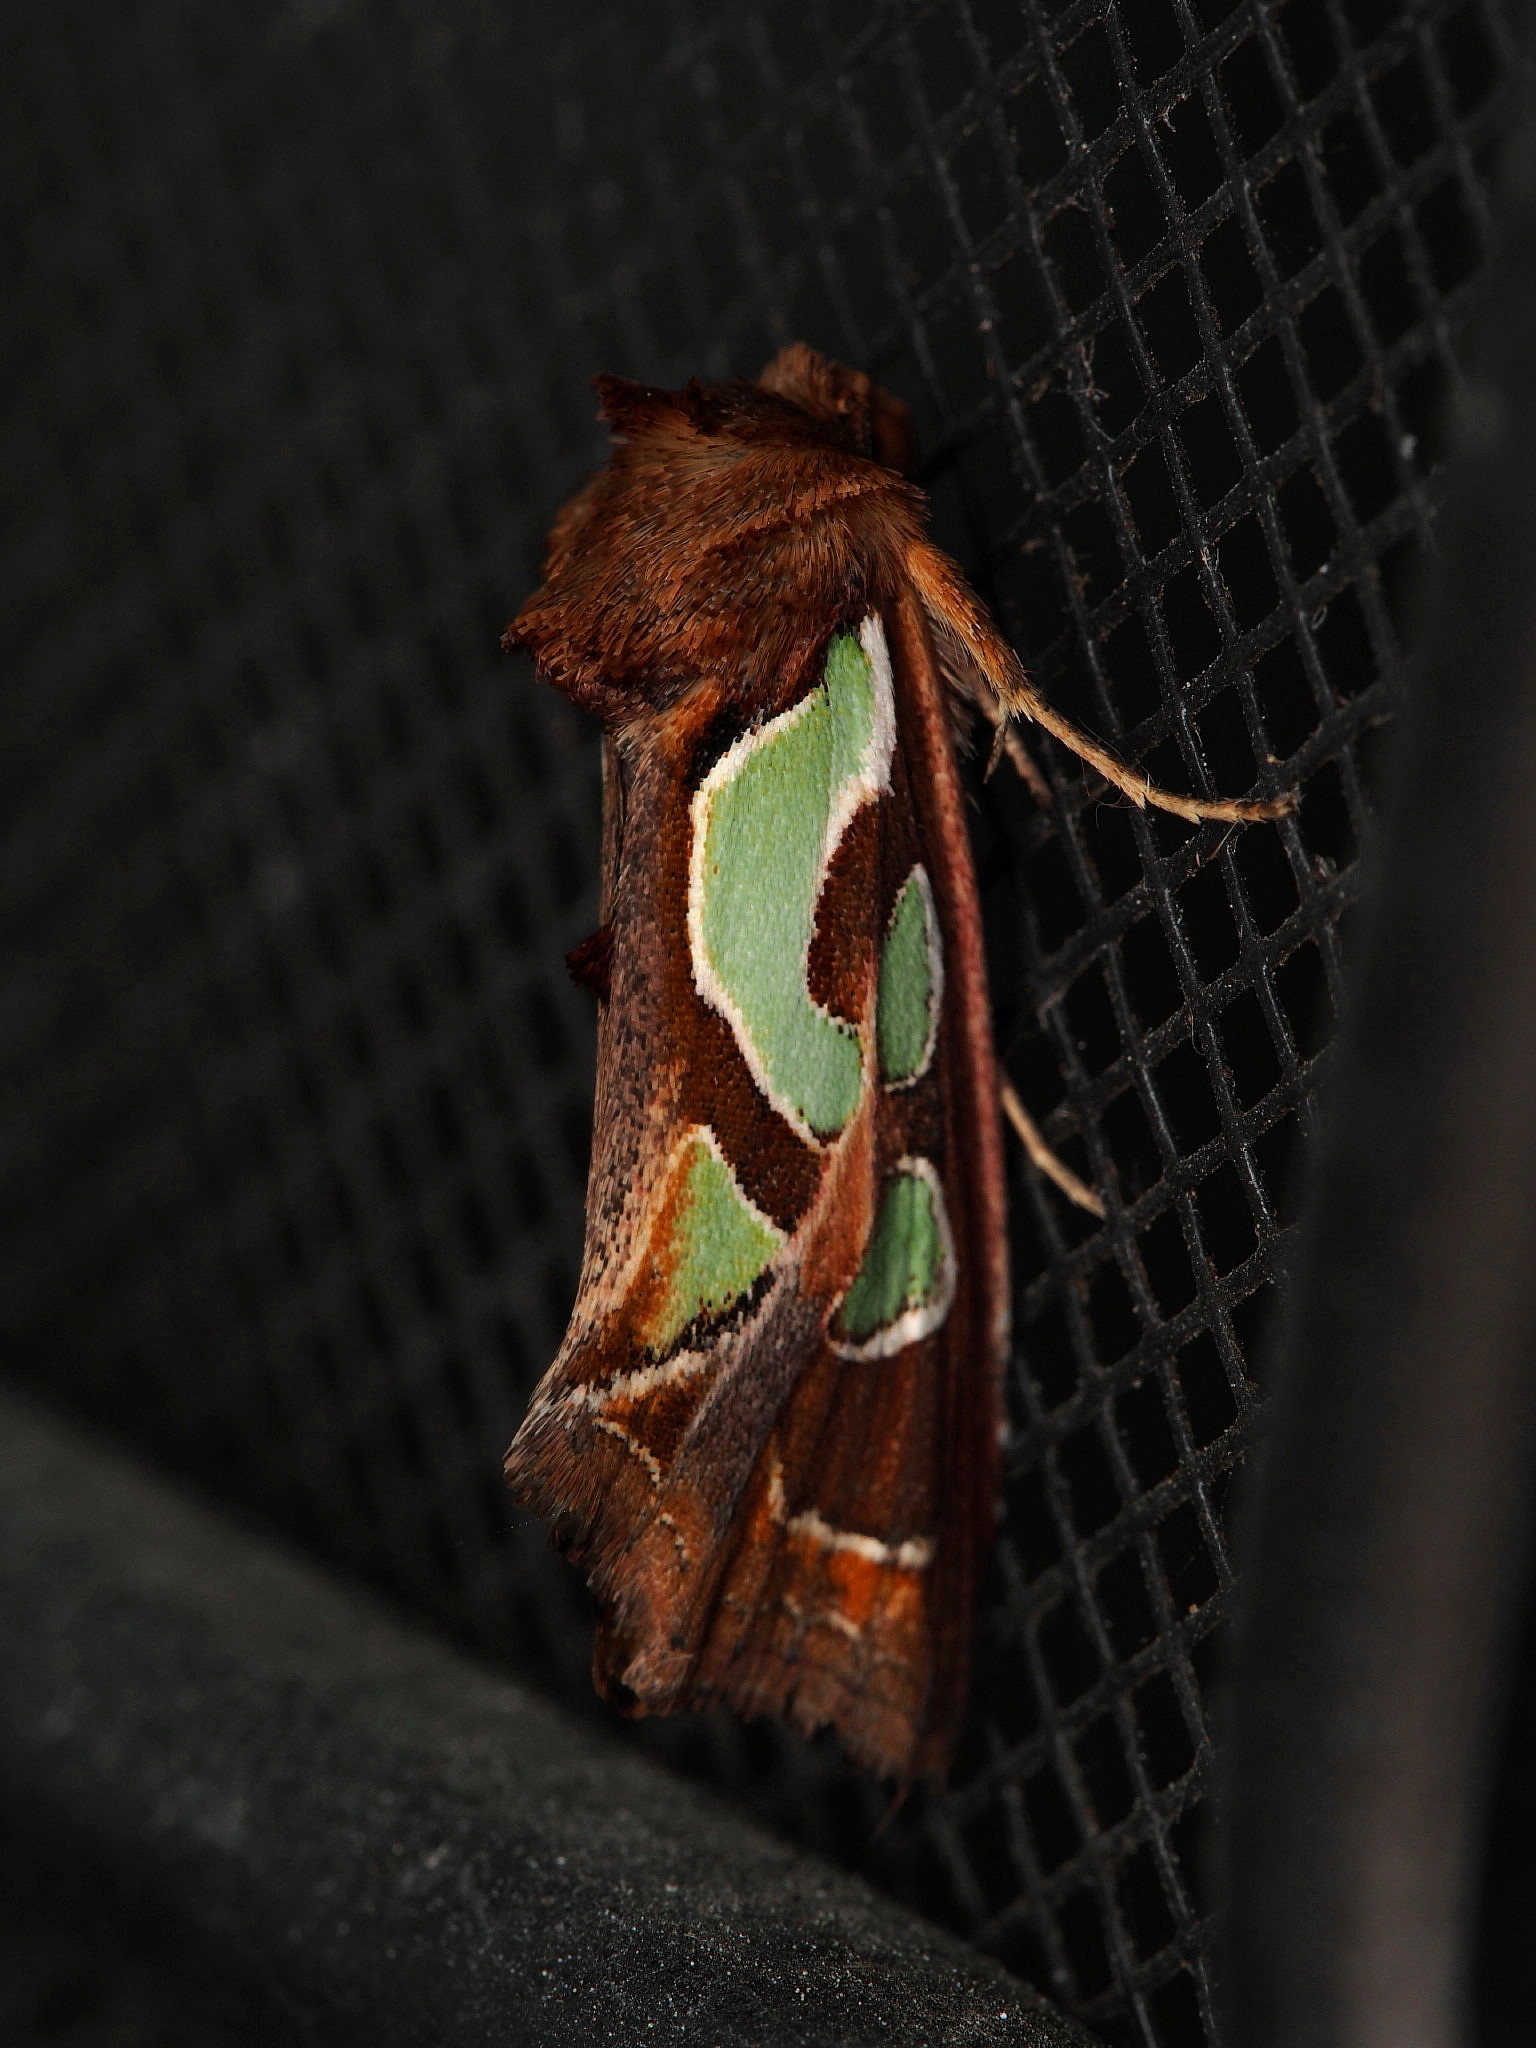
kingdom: Animalia
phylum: Arthropoda
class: Insecta
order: Lepidoptera
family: Noctuidae
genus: Cosmodes
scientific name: Cosmodes elegans
